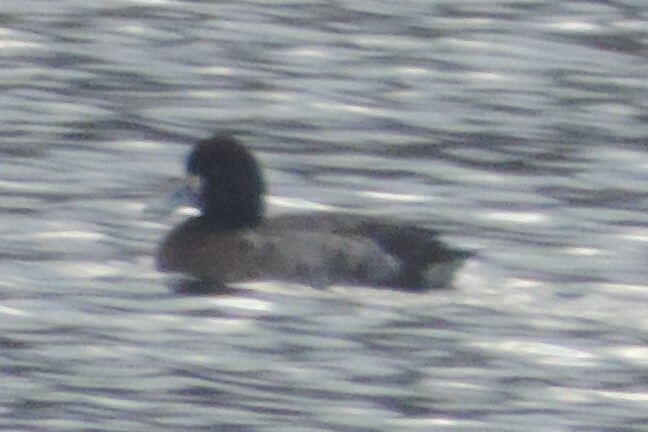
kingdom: Animalia
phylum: Chordata
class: Aves
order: Anseriformes
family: Anatidae
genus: Aythya
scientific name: Aythya marila
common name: Greater scaup
